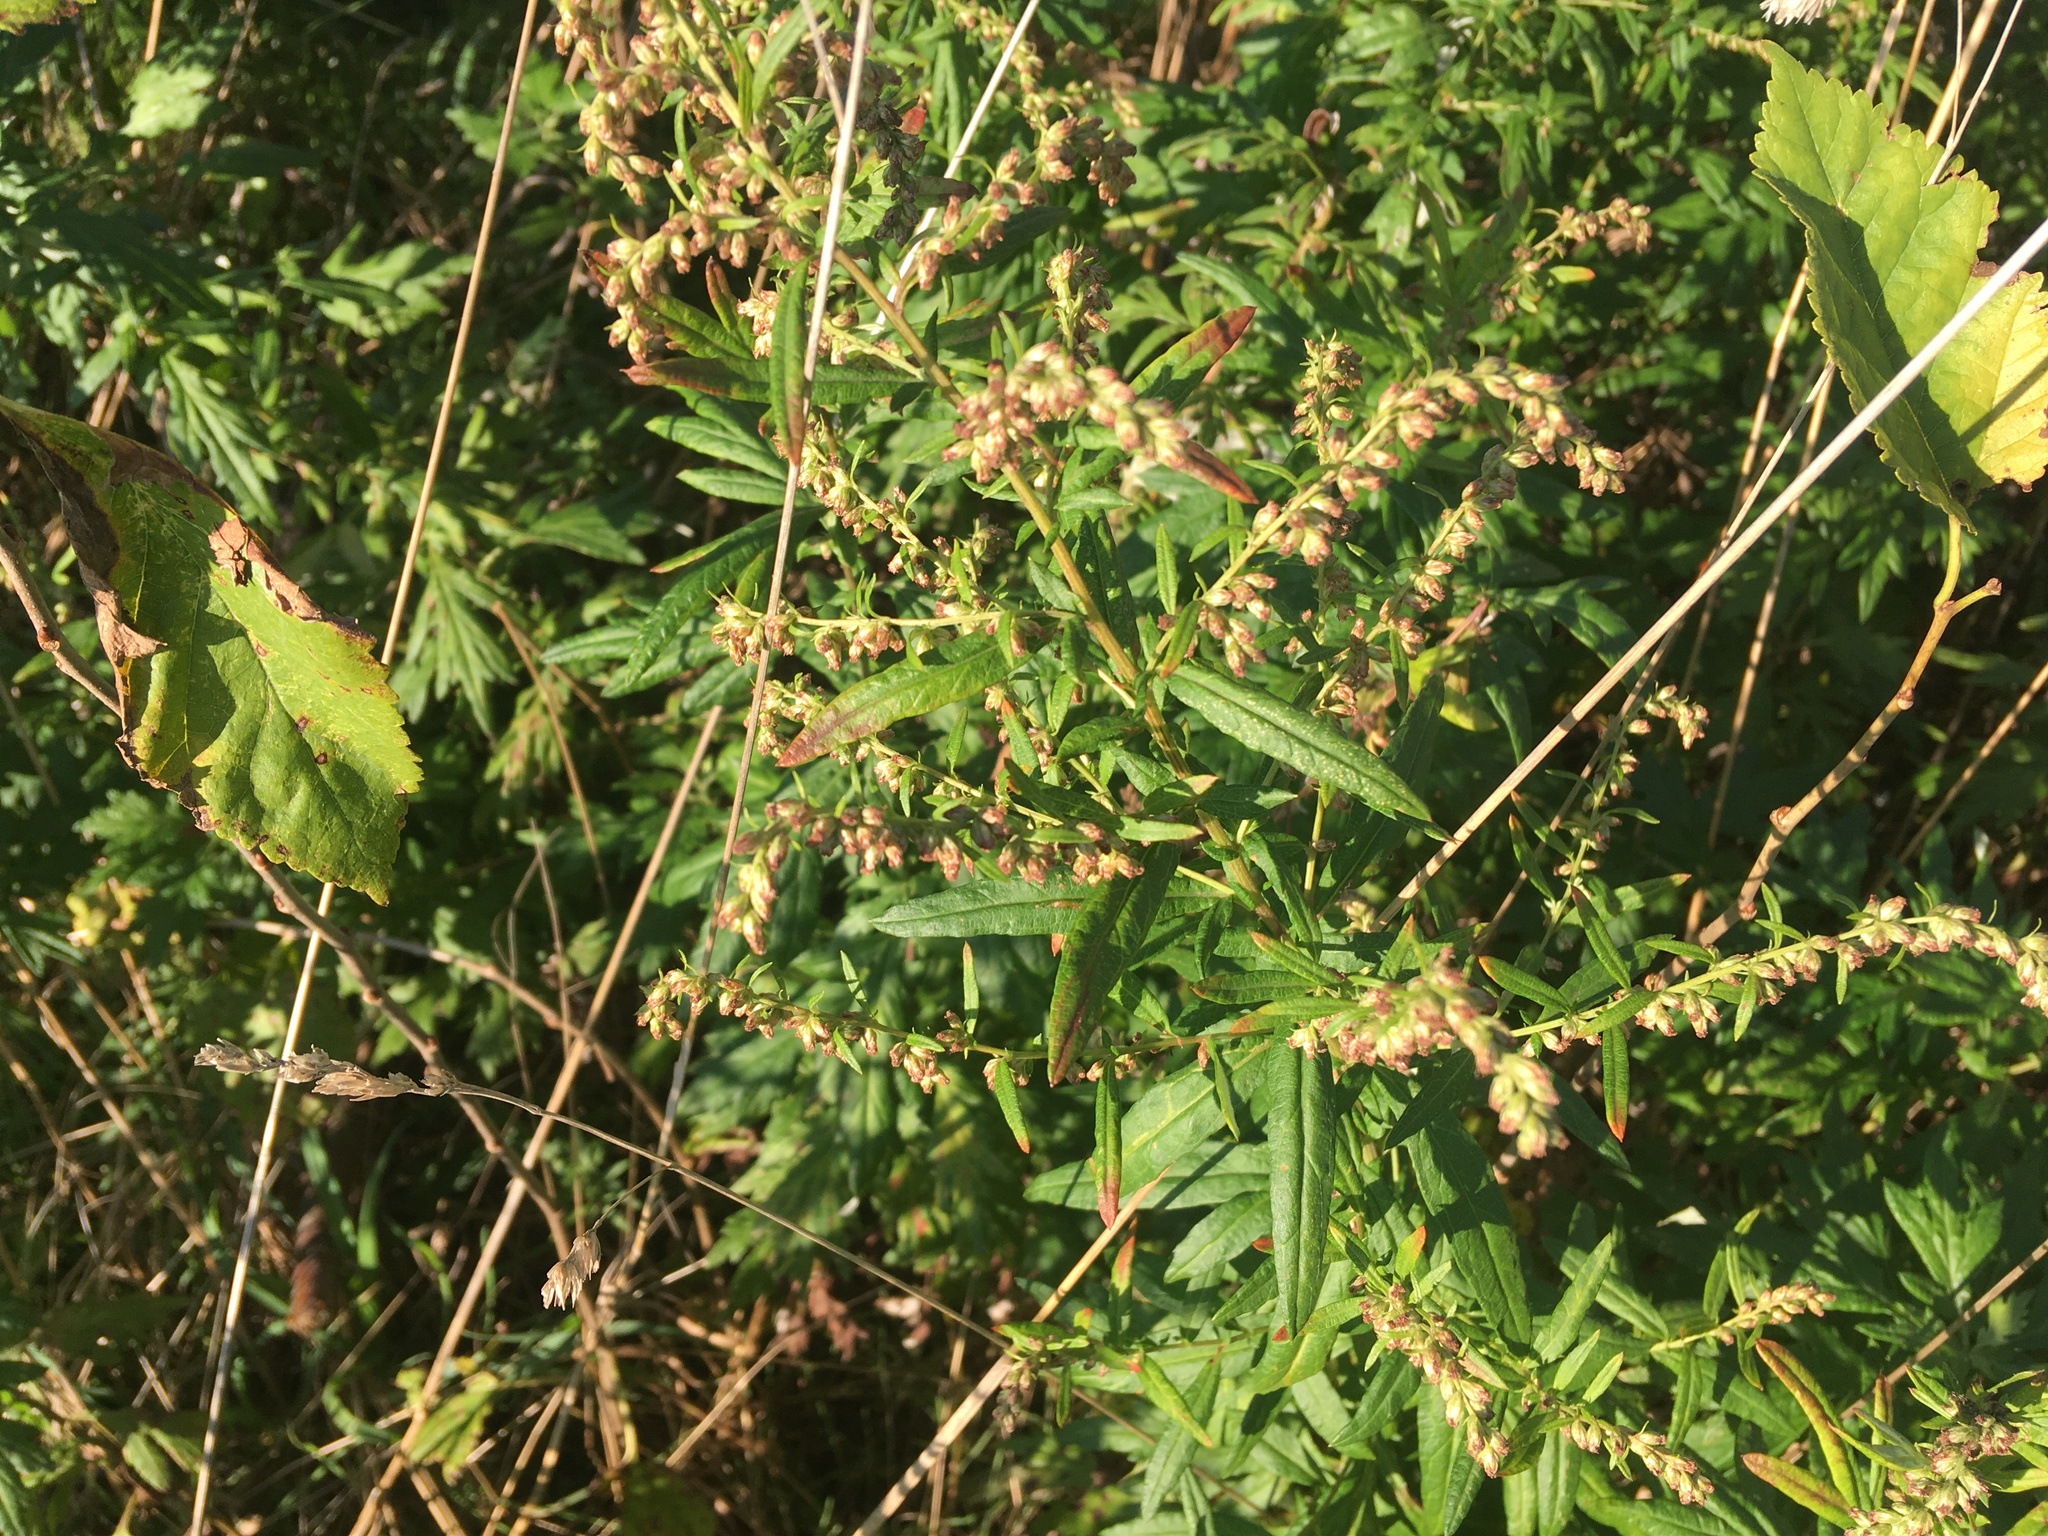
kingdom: Plantae
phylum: Tracheophyta
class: Magnoliopsida
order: Asterales
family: Asteraceae
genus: Artemisia
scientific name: Artemisia vulgaris
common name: Mugwort
